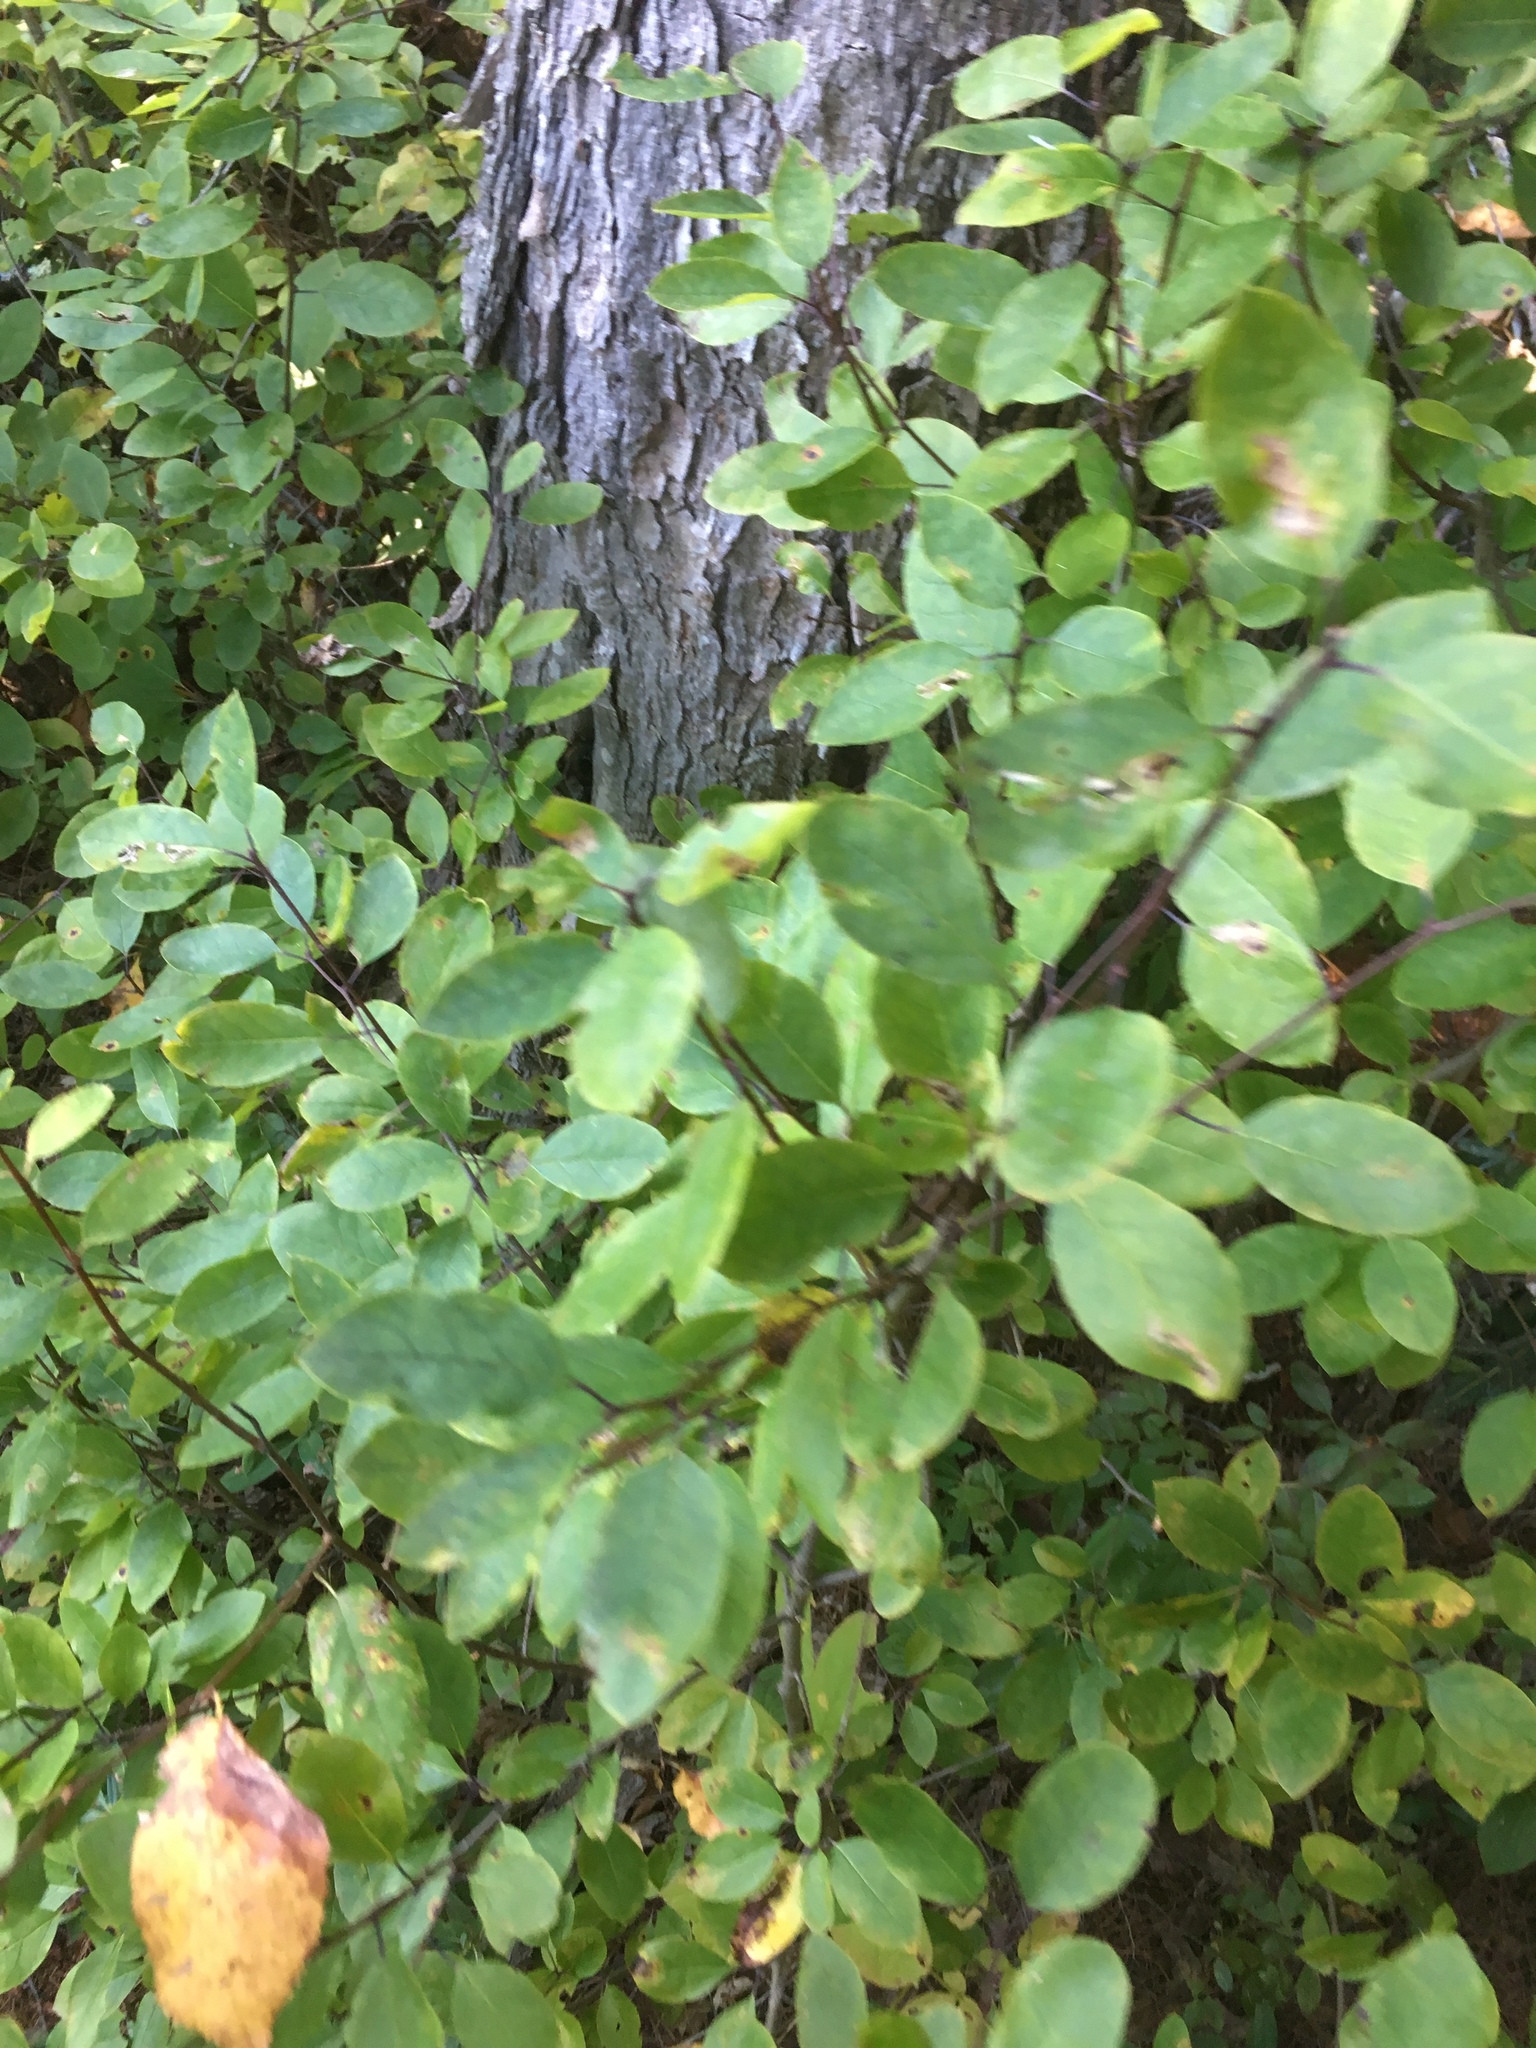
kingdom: Plantae
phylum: Tracheophyta
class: Magnoliopsida
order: Aquifoliales
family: Aquifoliaceae
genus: Ilex
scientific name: Ilex mucronata
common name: Catberry
